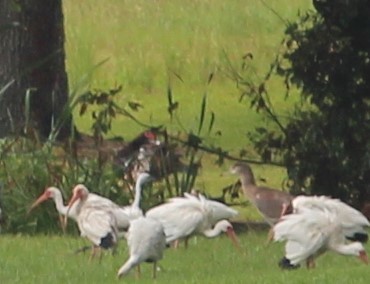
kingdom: Animalia
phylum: Chordata
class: Aves
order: Anseriformes
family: Anatidae
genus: Cairina
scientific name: Cairina moschata
